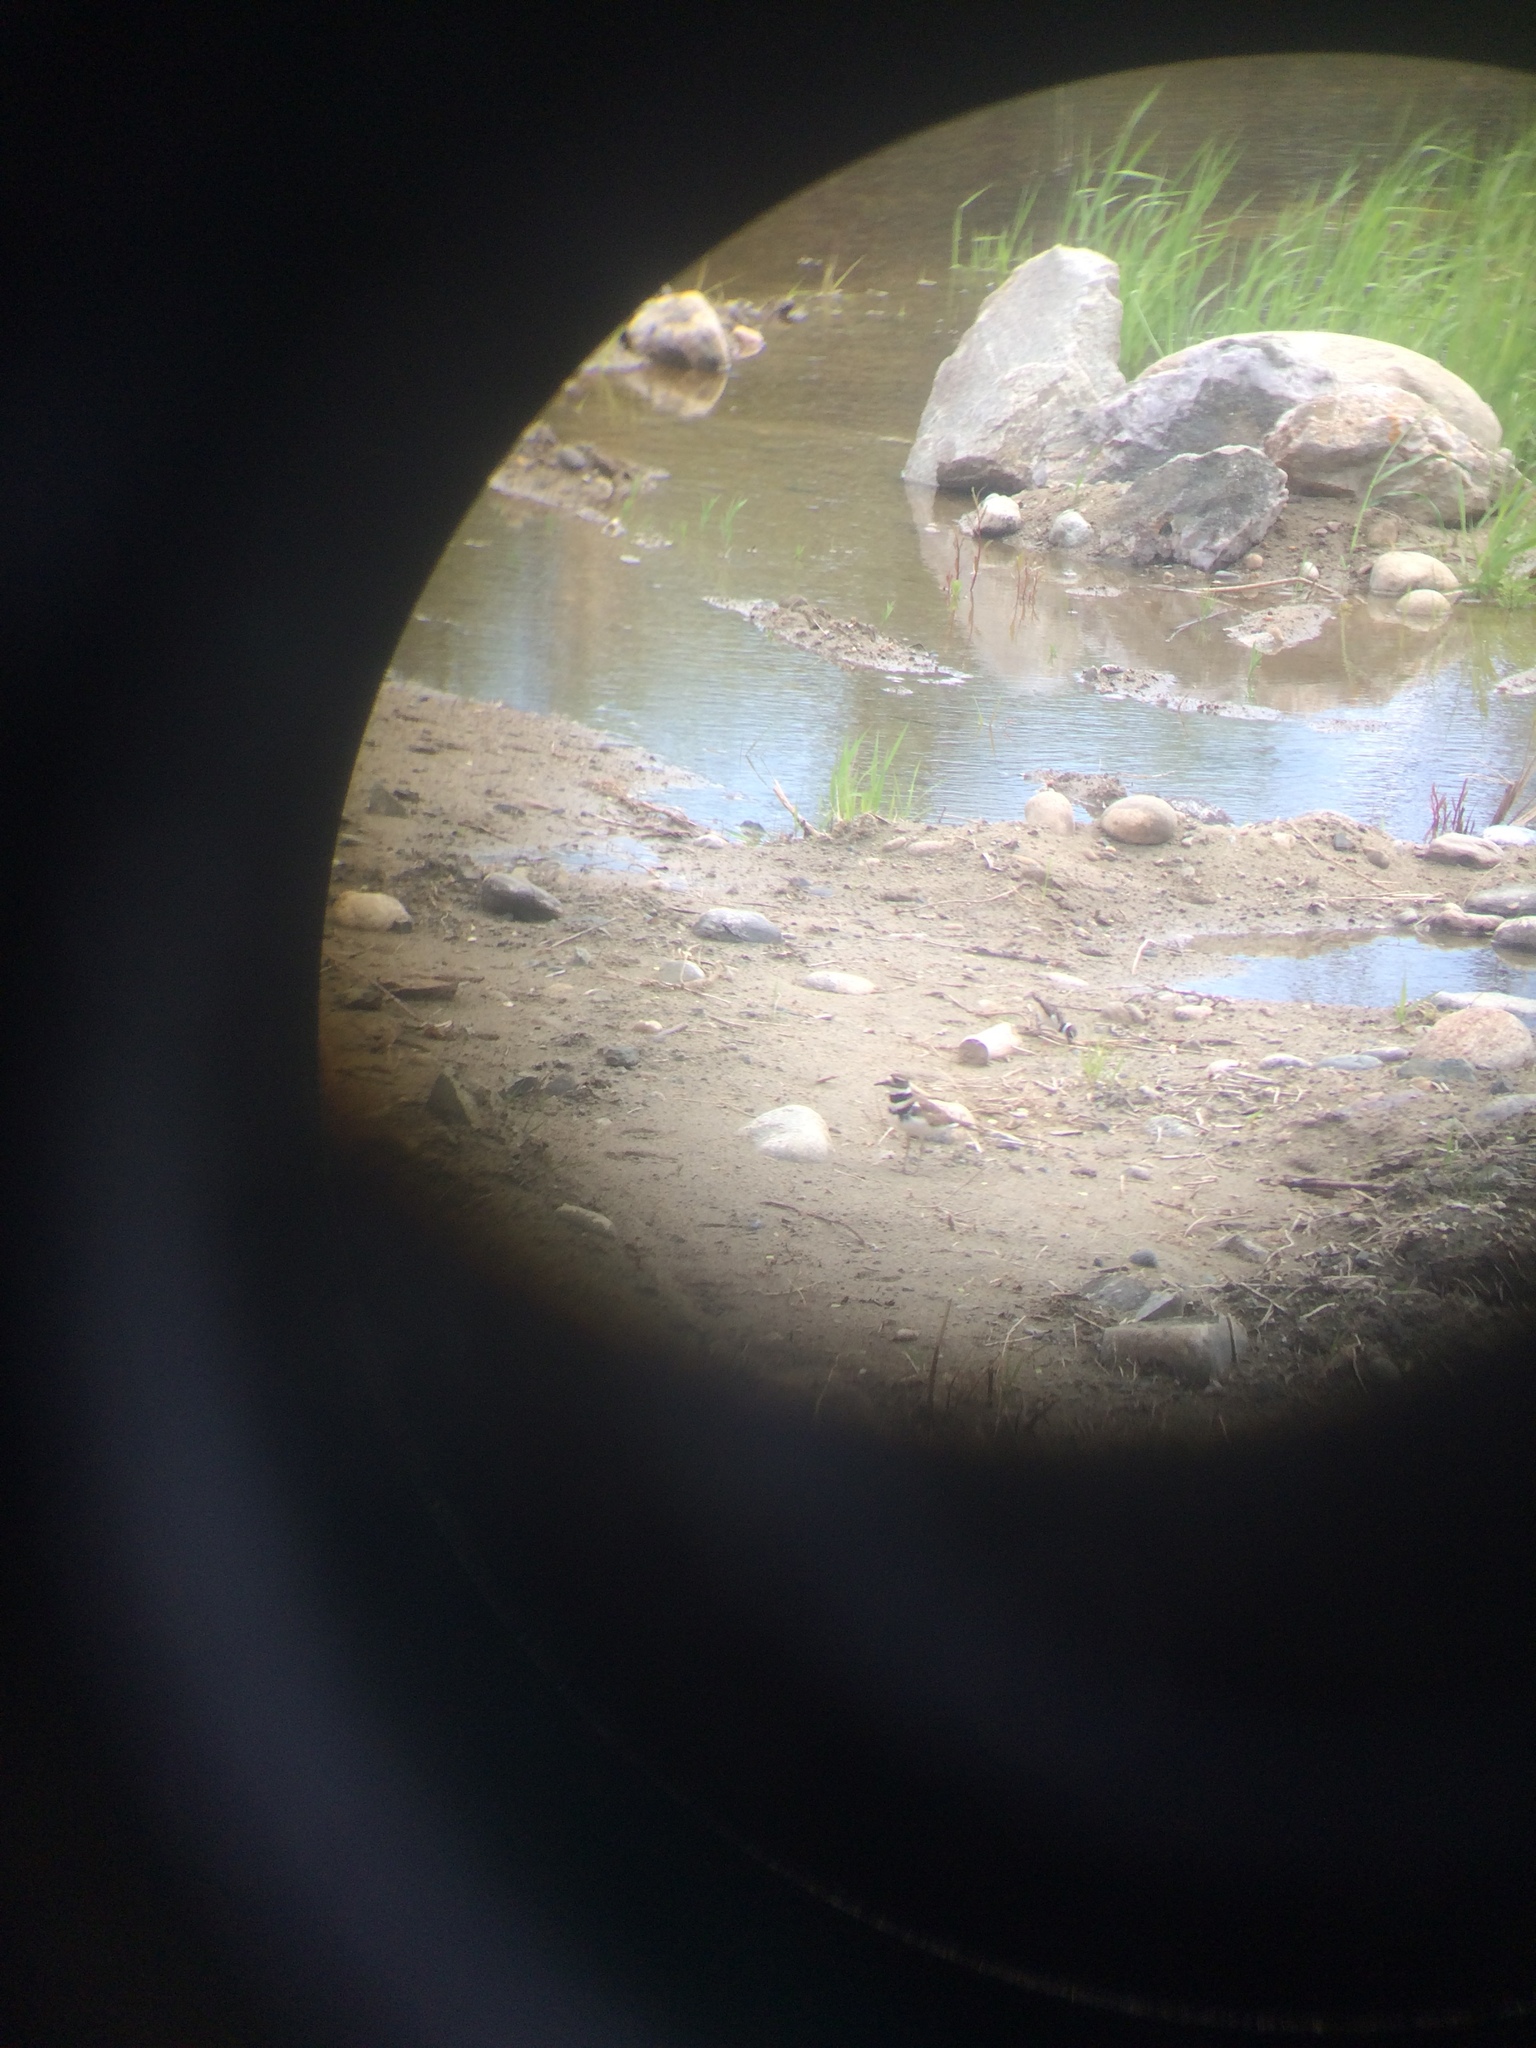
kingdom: Animalia
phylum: Chordata
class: Aves
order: Charadriiformes
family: Charadriidae
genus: Charadrius
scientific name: Charadrius vociferus
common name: Killdeer
